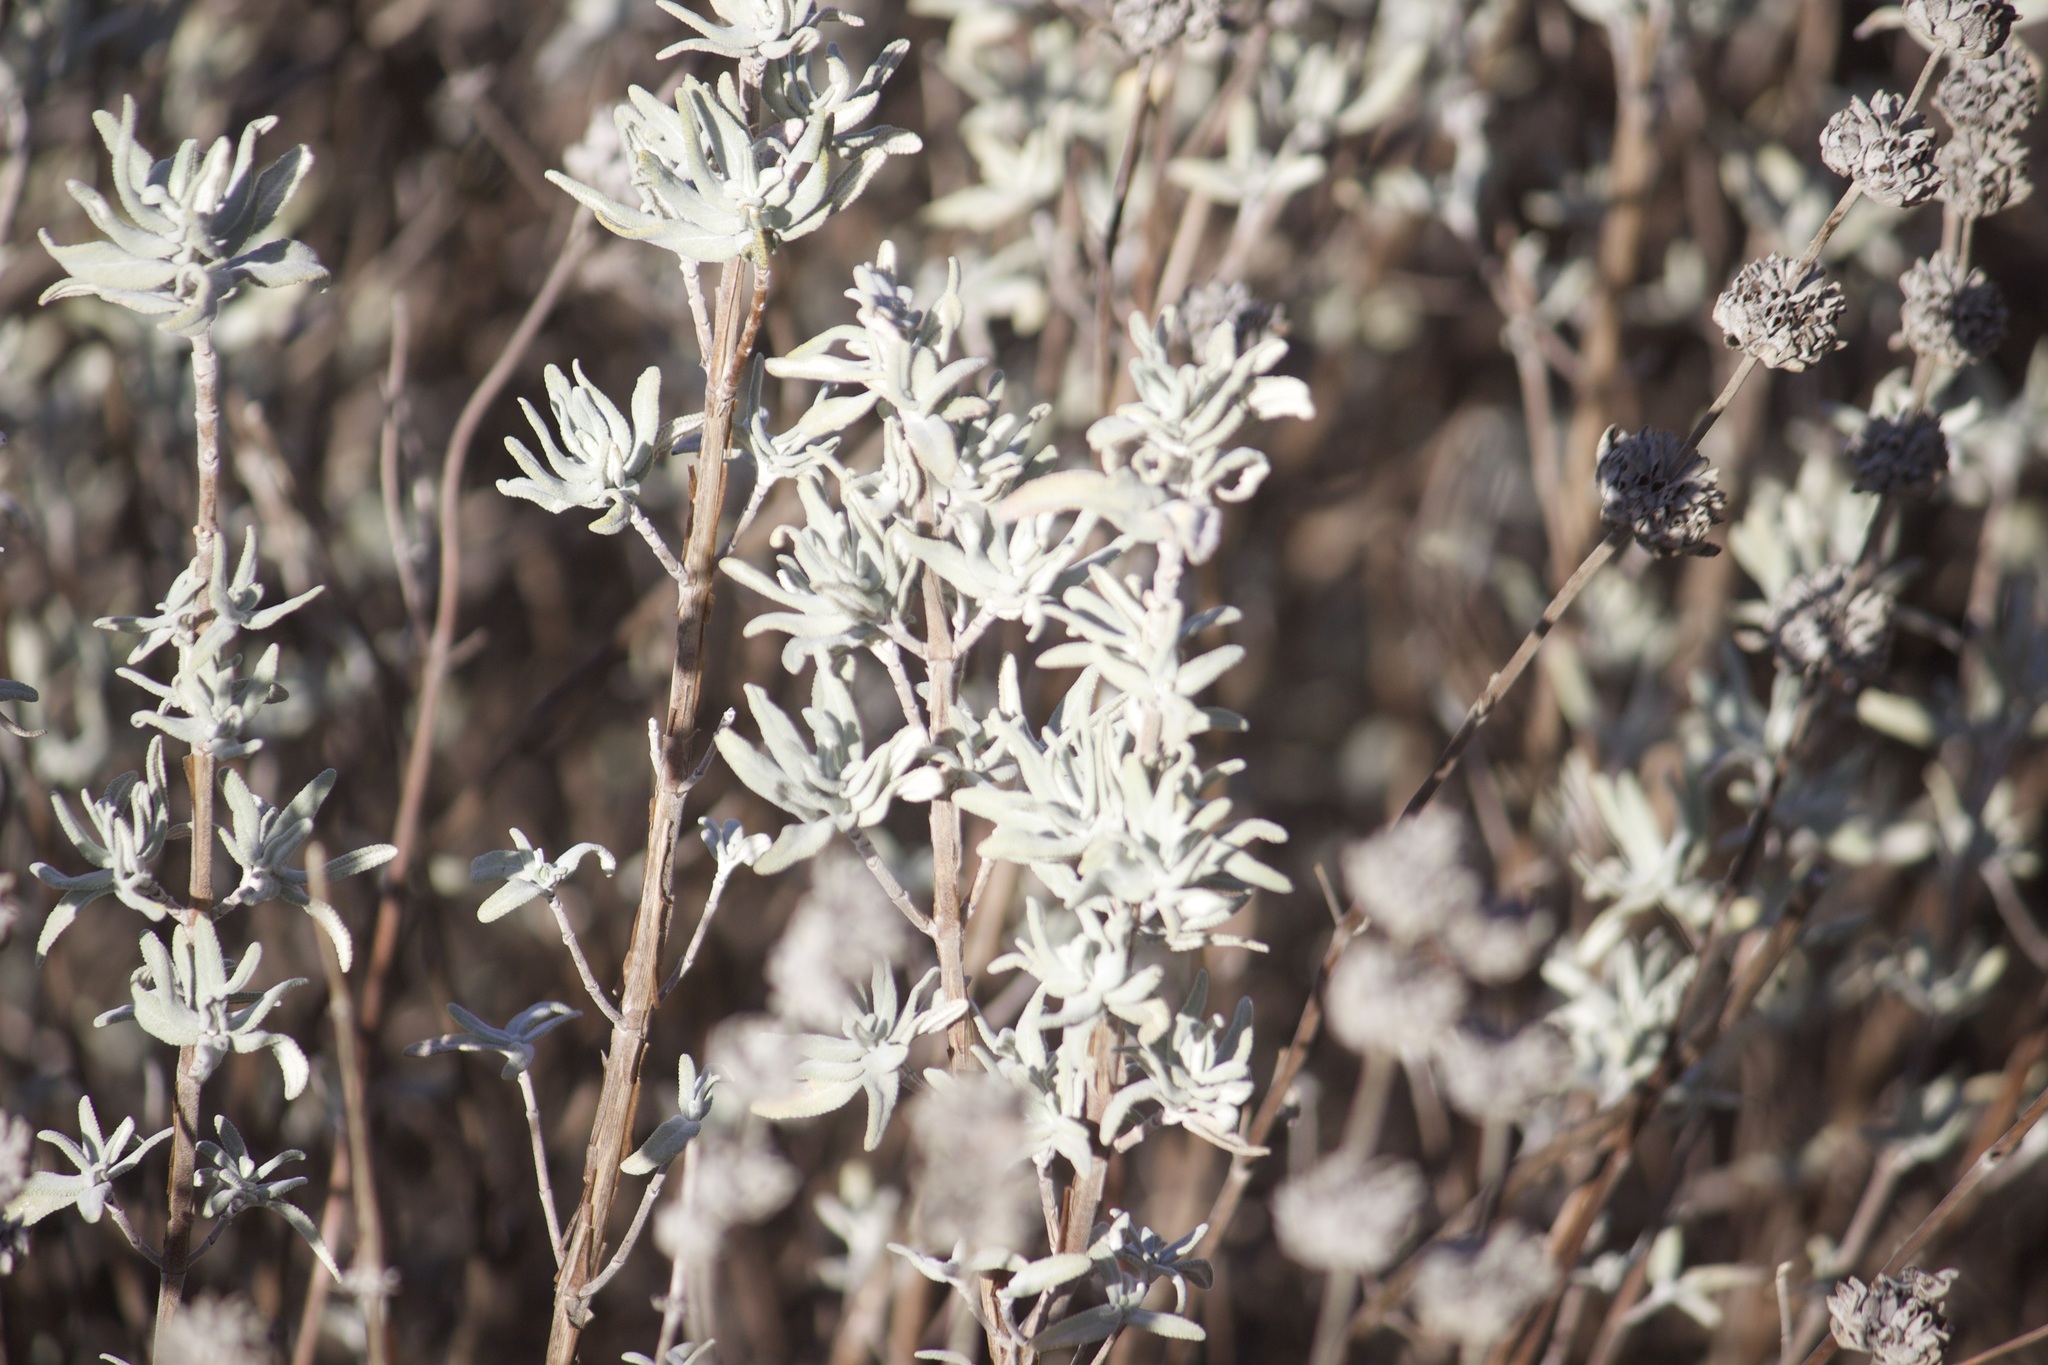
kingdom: Plantae
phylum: Tracheophyta
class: Magnoliopsida
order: Lamiales
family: Lamiaceae
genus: Salvia
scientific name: Salvia leucophylla
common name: Purple sage
